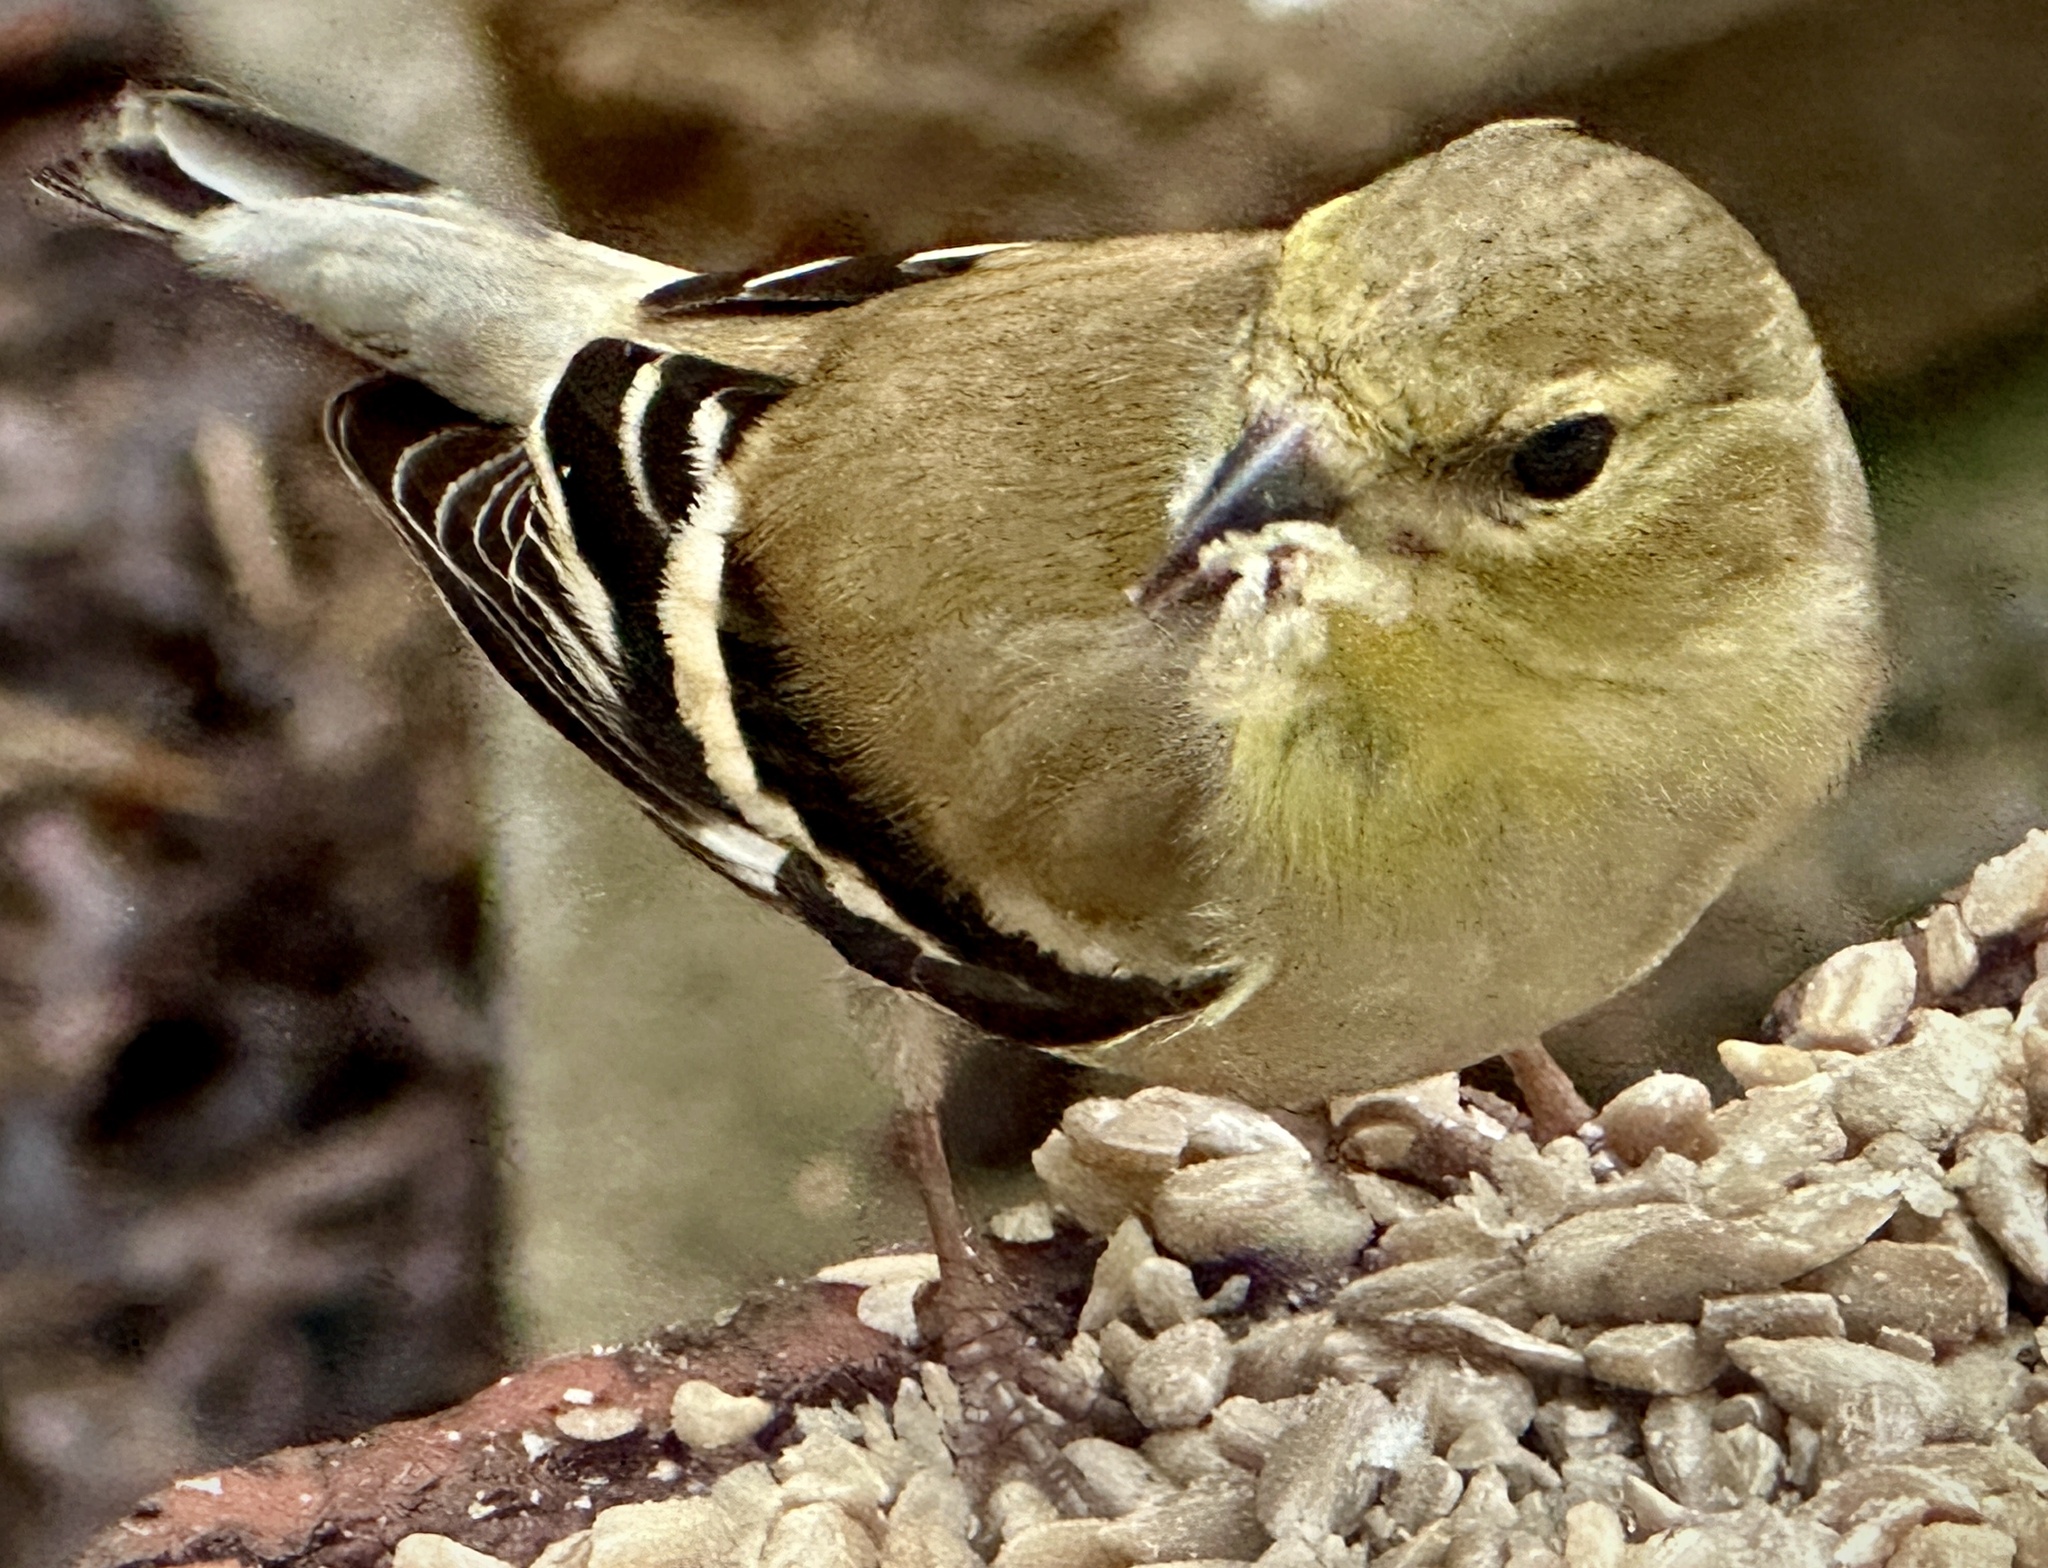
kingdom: Animalia
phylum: Chordata
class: Aves
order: Passeriformes
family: Fringillidae
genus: Spinus
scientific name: Spinus tristis
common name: American goldfinch
